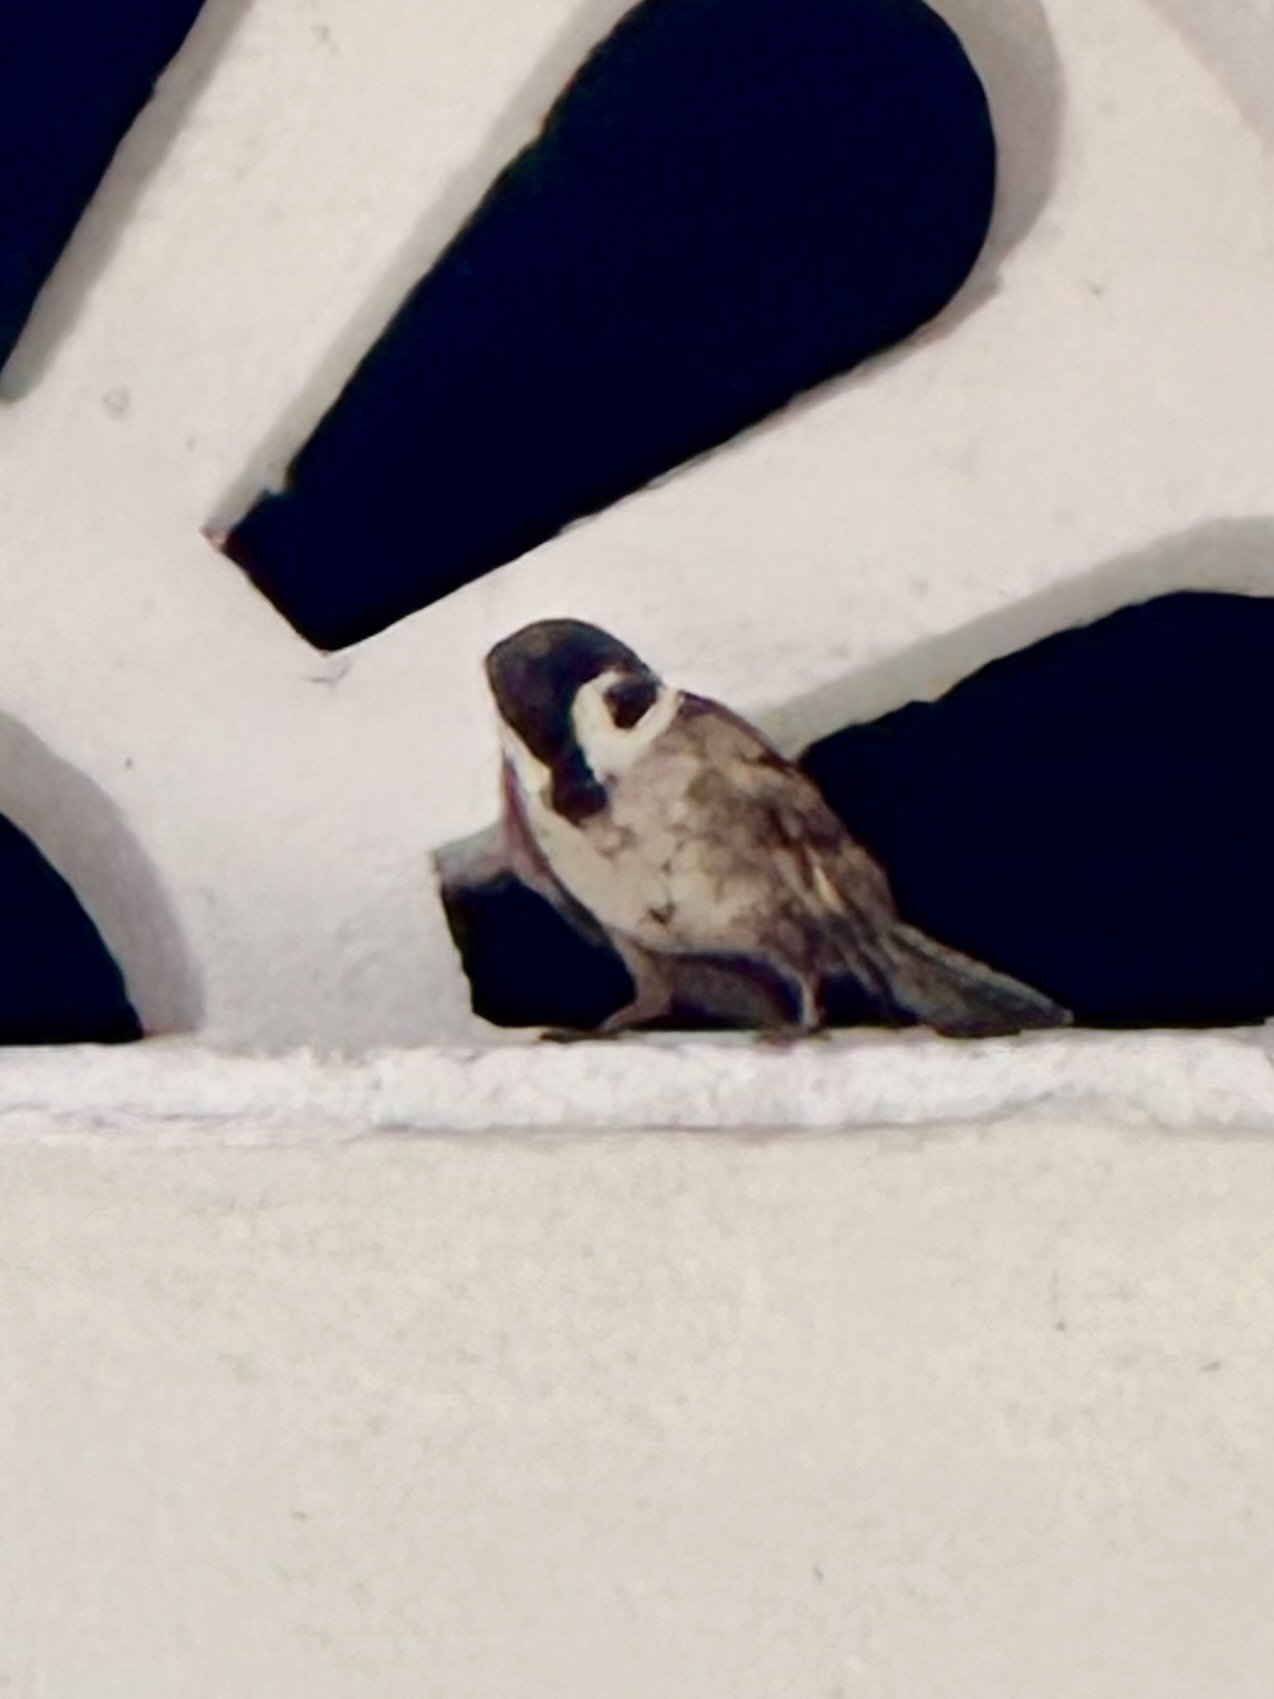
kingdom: Animalia
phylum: Chordata
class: Aves
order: Passeriformes
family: Passeridae
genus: Passer
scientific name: Passer montanus
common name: Eurasian tree sparrow
